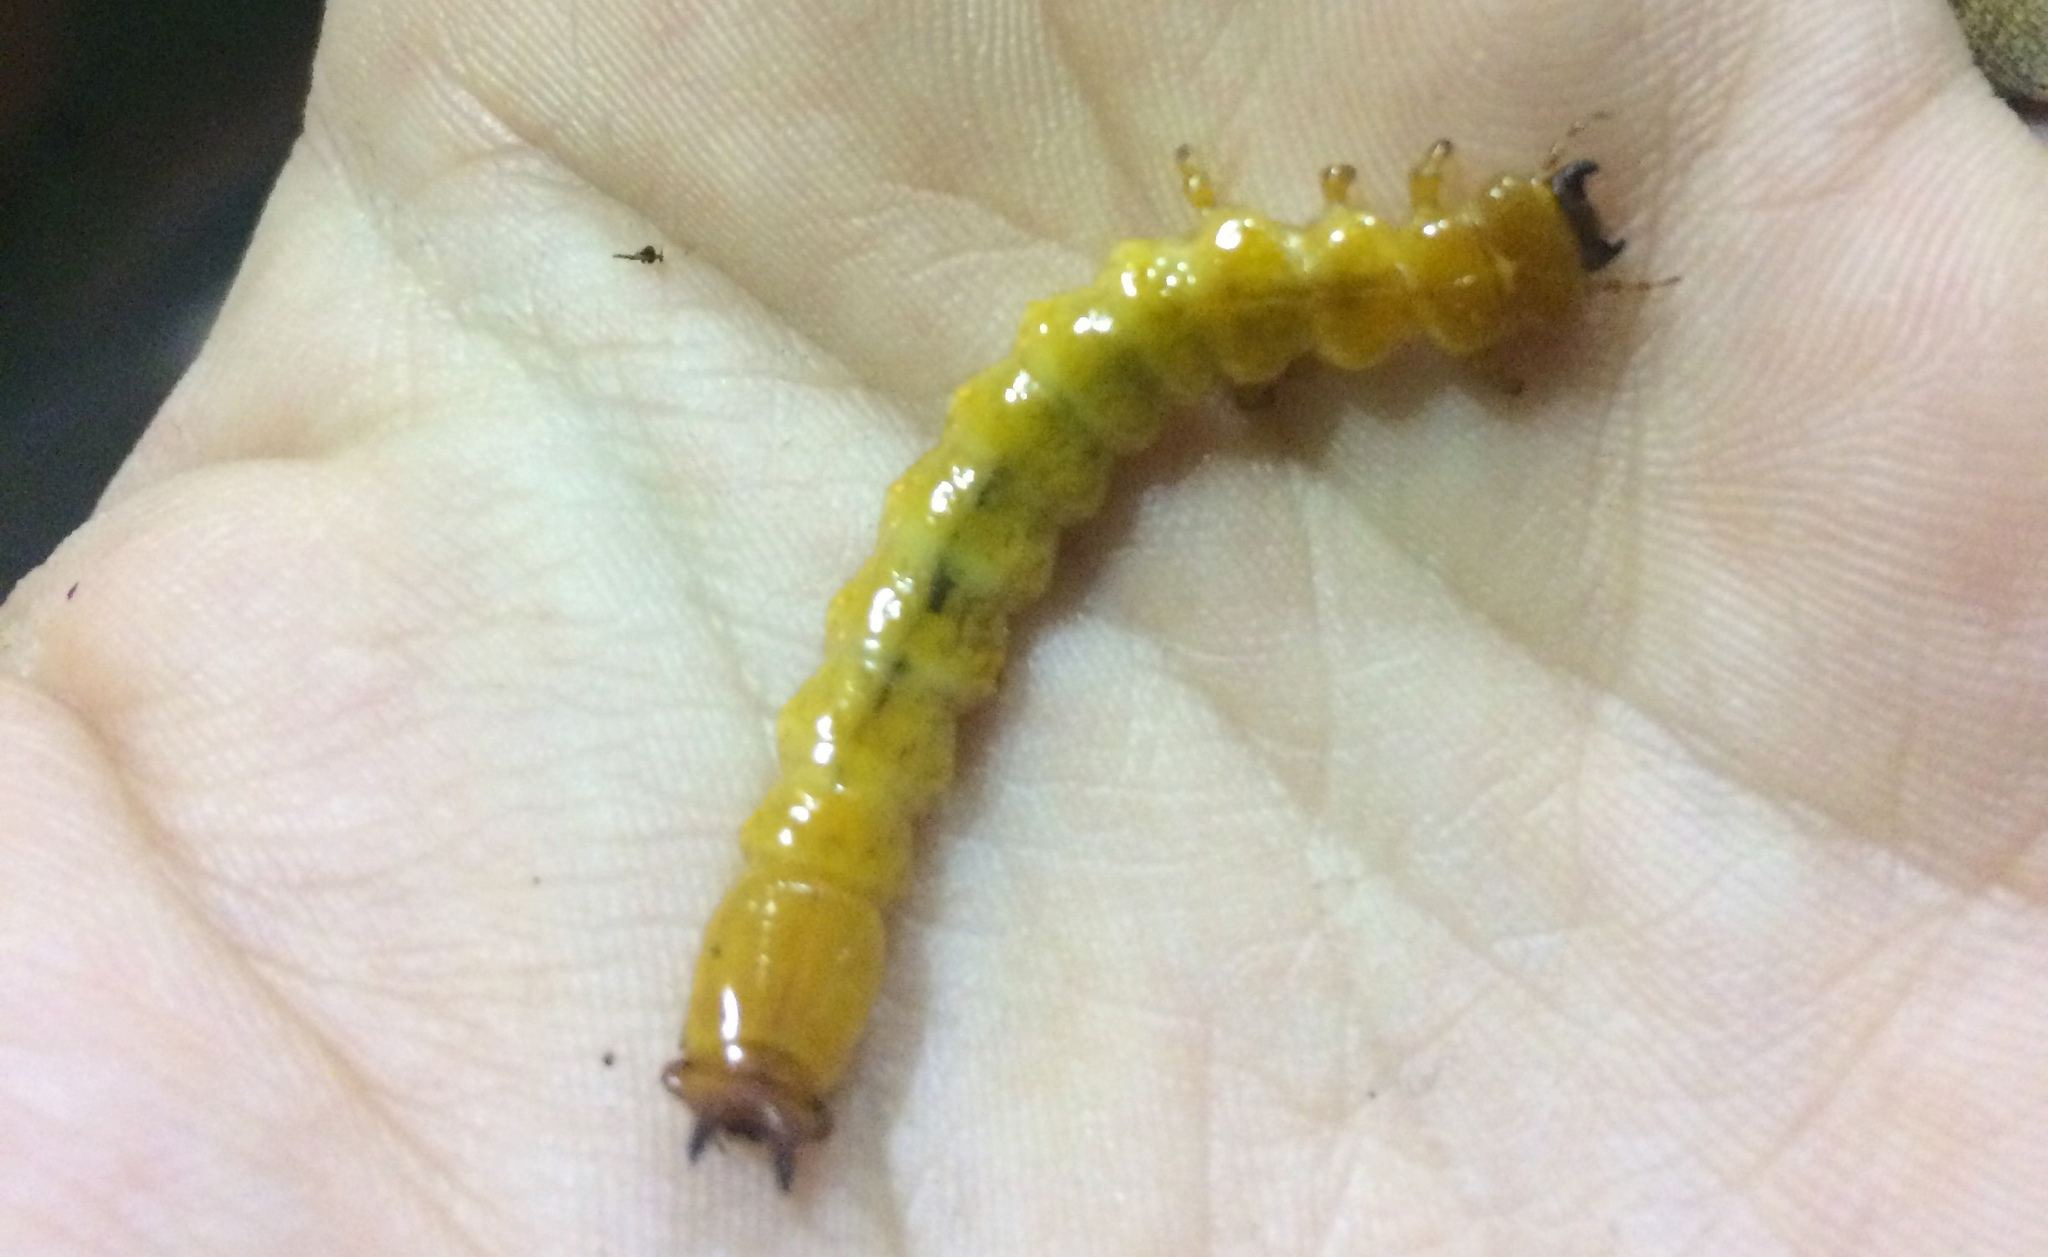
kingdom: Animalia
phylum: Arthropoda
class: Insecta
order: Coleoptera
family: Pyrochroidae
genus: Pyrochroa
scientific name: Pyrochroa coccinea
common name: Black-headed cardinal beetle
